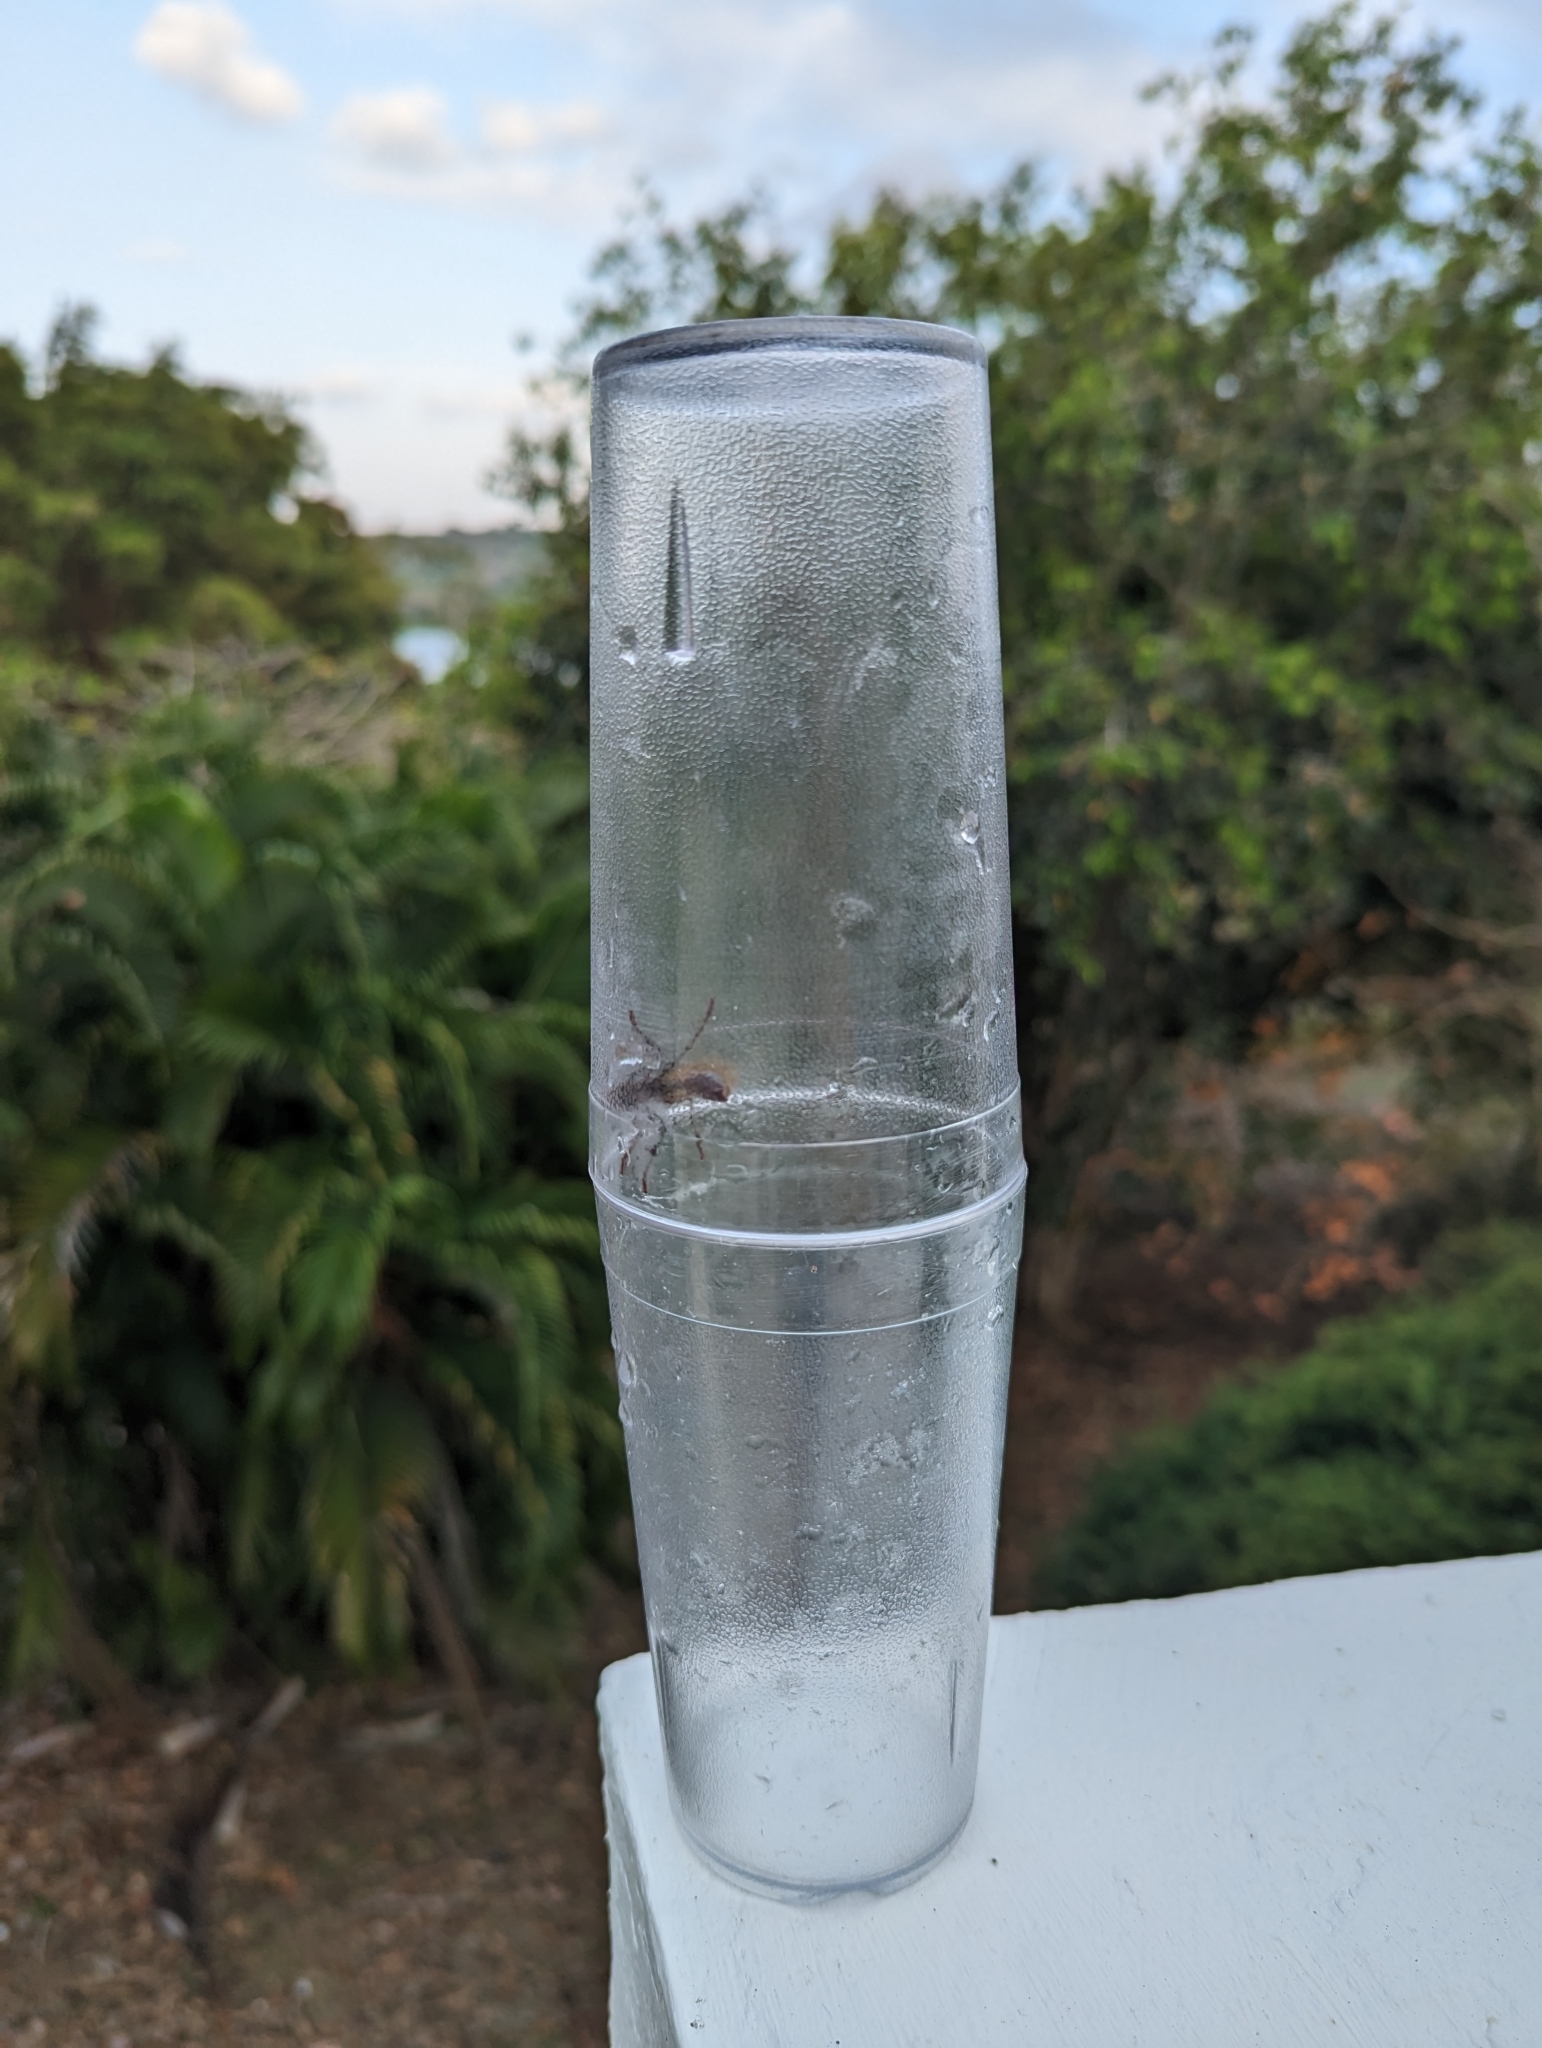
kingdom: Animalia
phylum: Arthropoda
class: Insecta
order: Hymenoptera
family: Formicidae
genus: Paraponera
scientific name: Paraponera clavata
